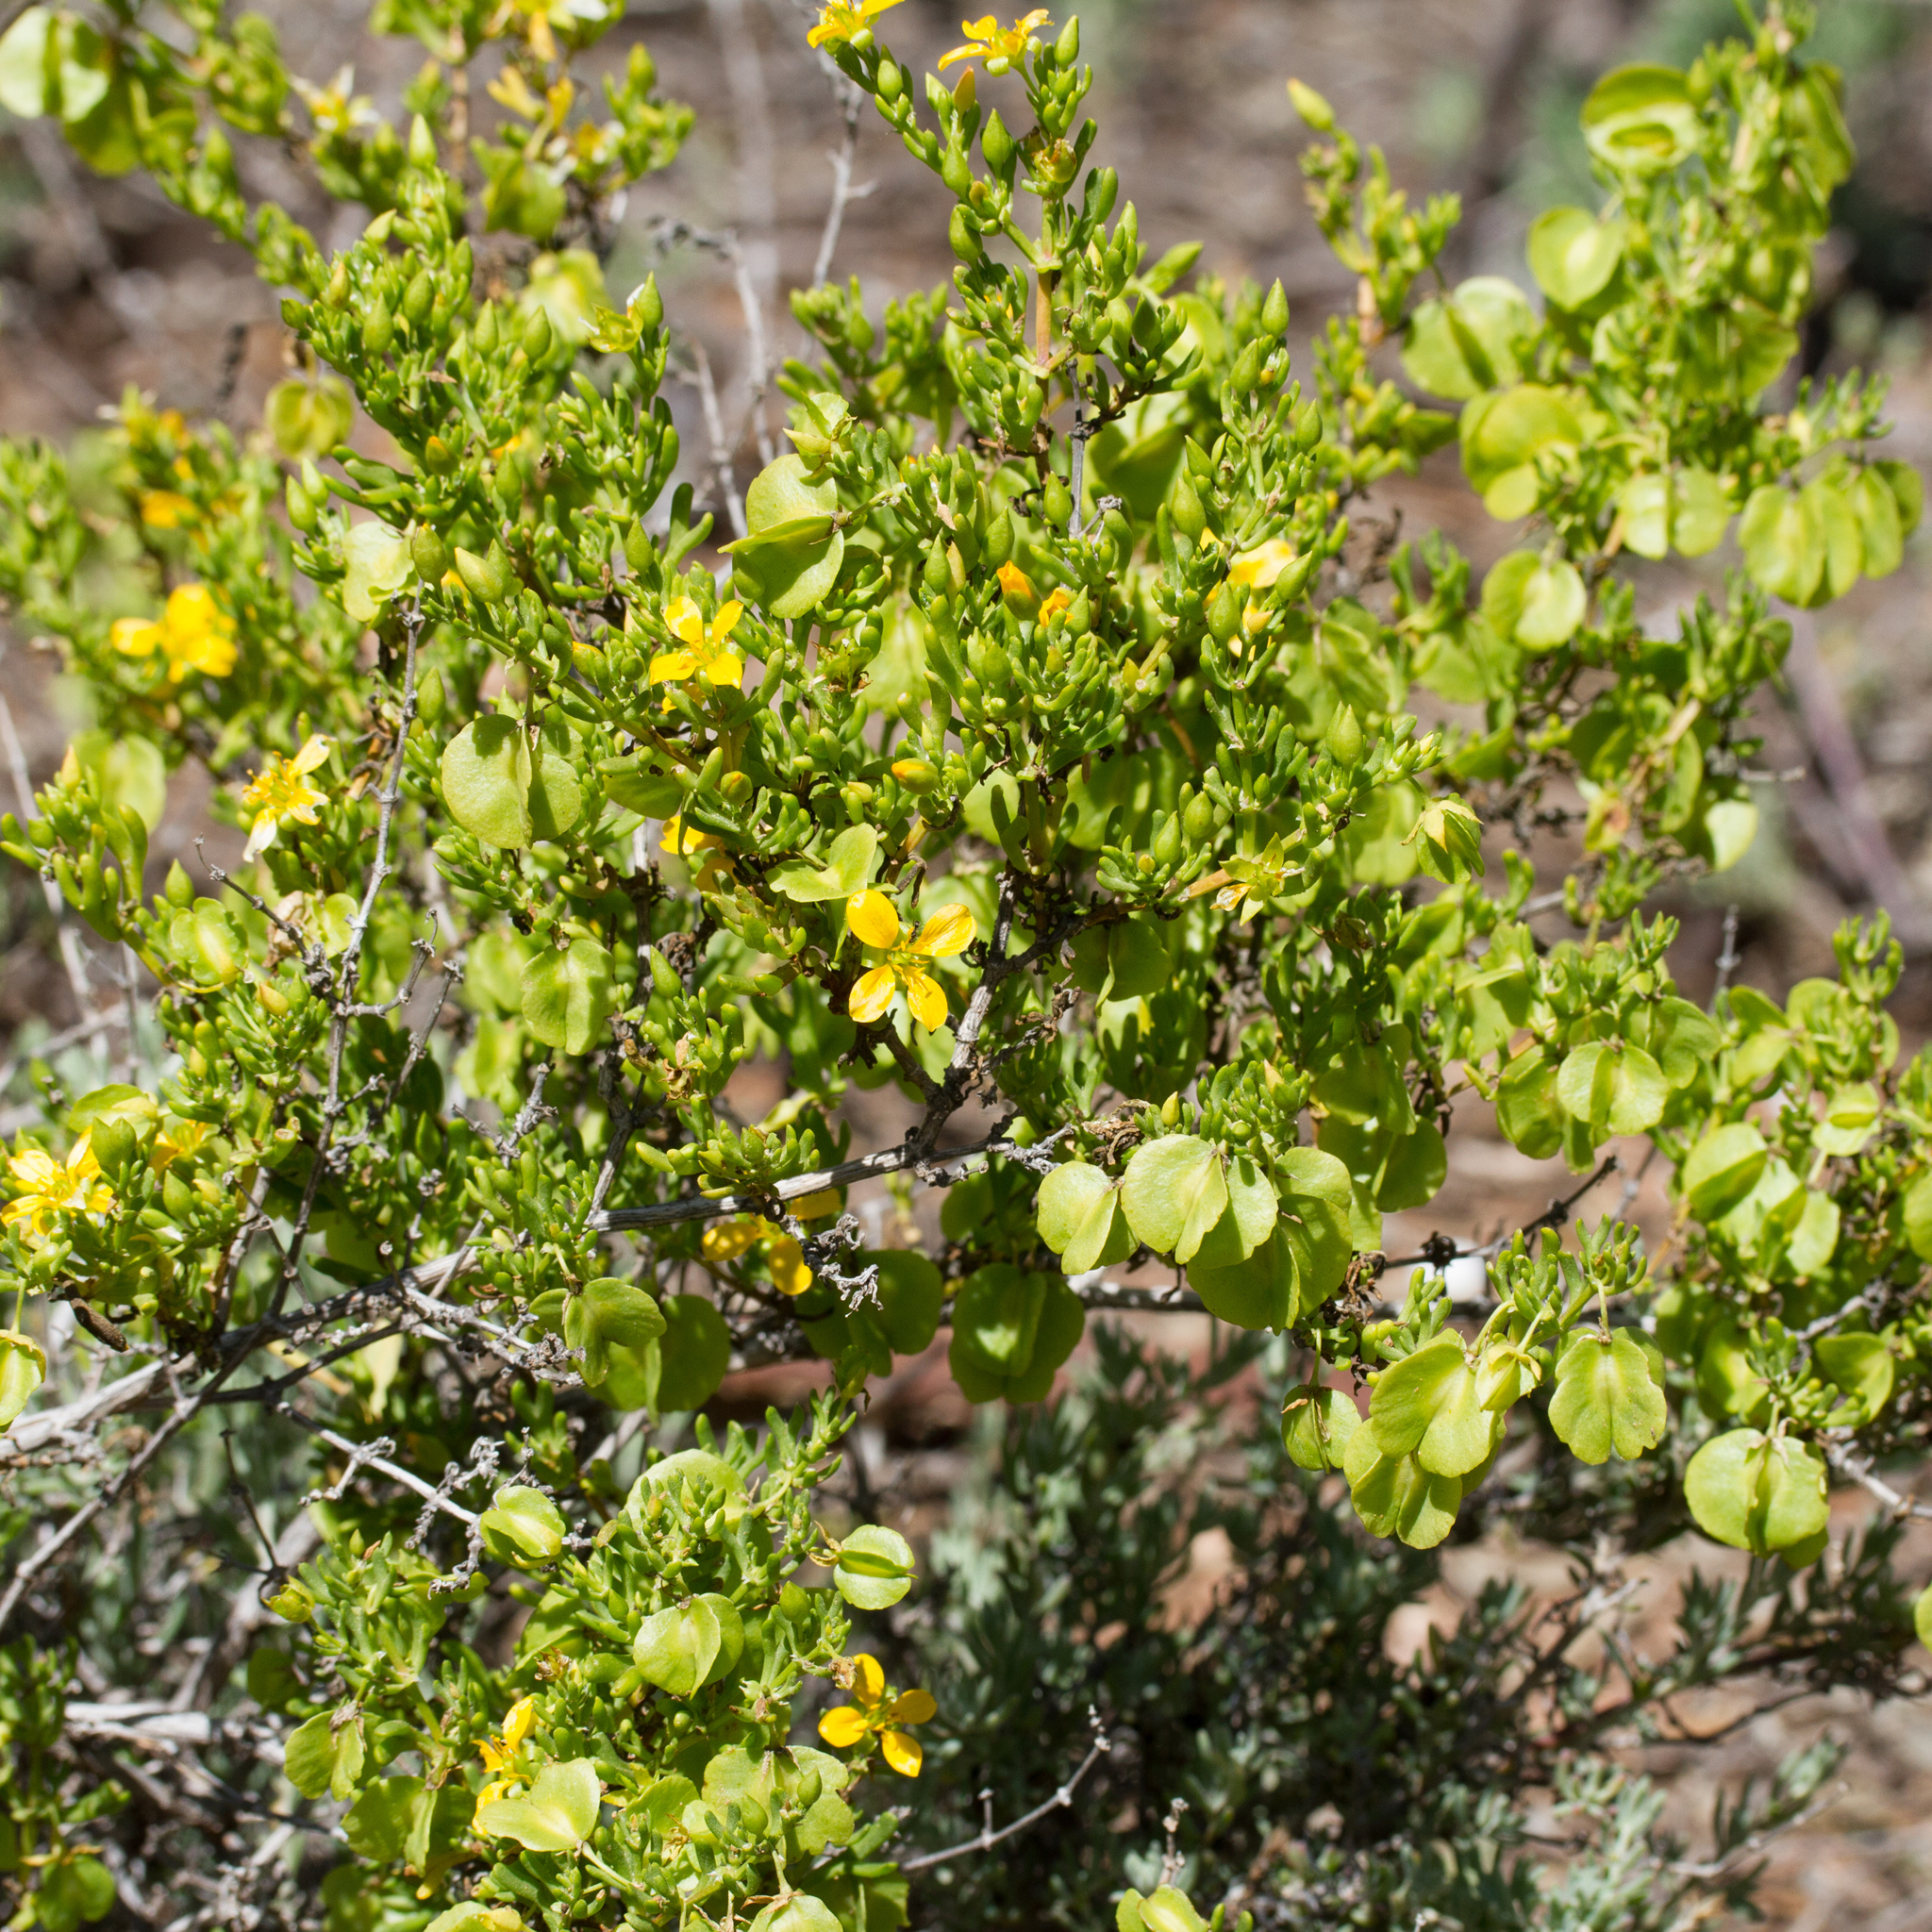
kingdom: Plantae
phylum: Tracheophyta
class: Magnoliopsida
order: Zygophyllales
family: Zygophyllaceae
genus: Roepera
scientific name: Roepera aurantiaca
